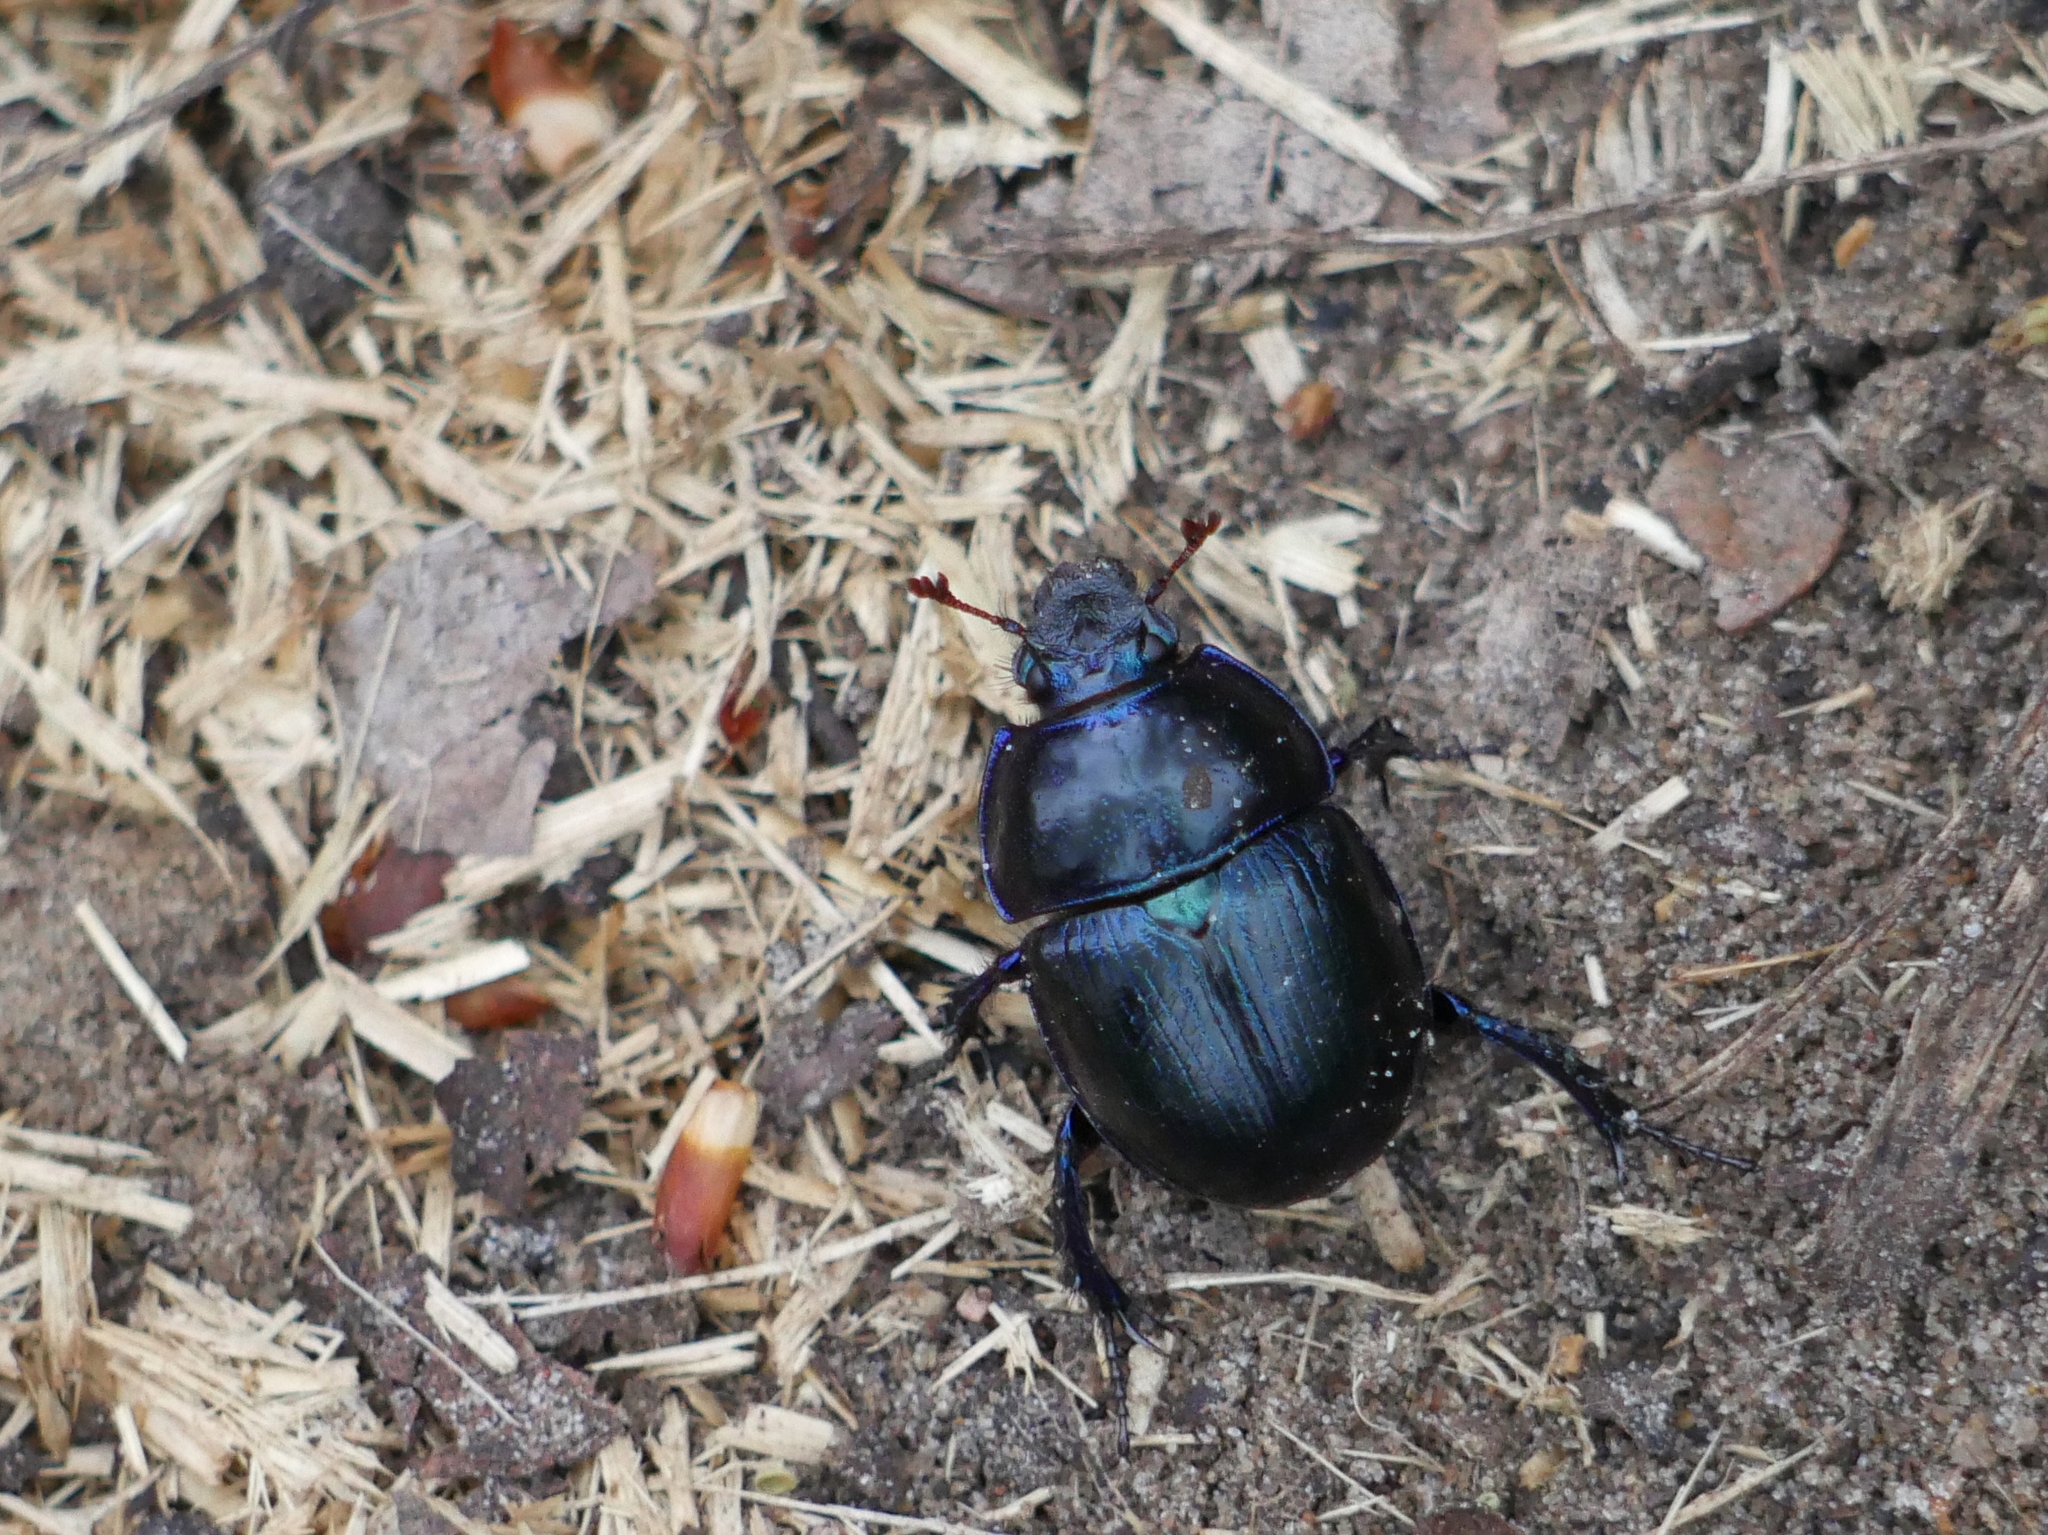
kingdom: Animalia
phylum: Arthropoda
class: Insecta
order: Coleoptera
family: Geotrupidae
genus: Anoplotrupes
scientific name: Anoplotrupes stercorosus
